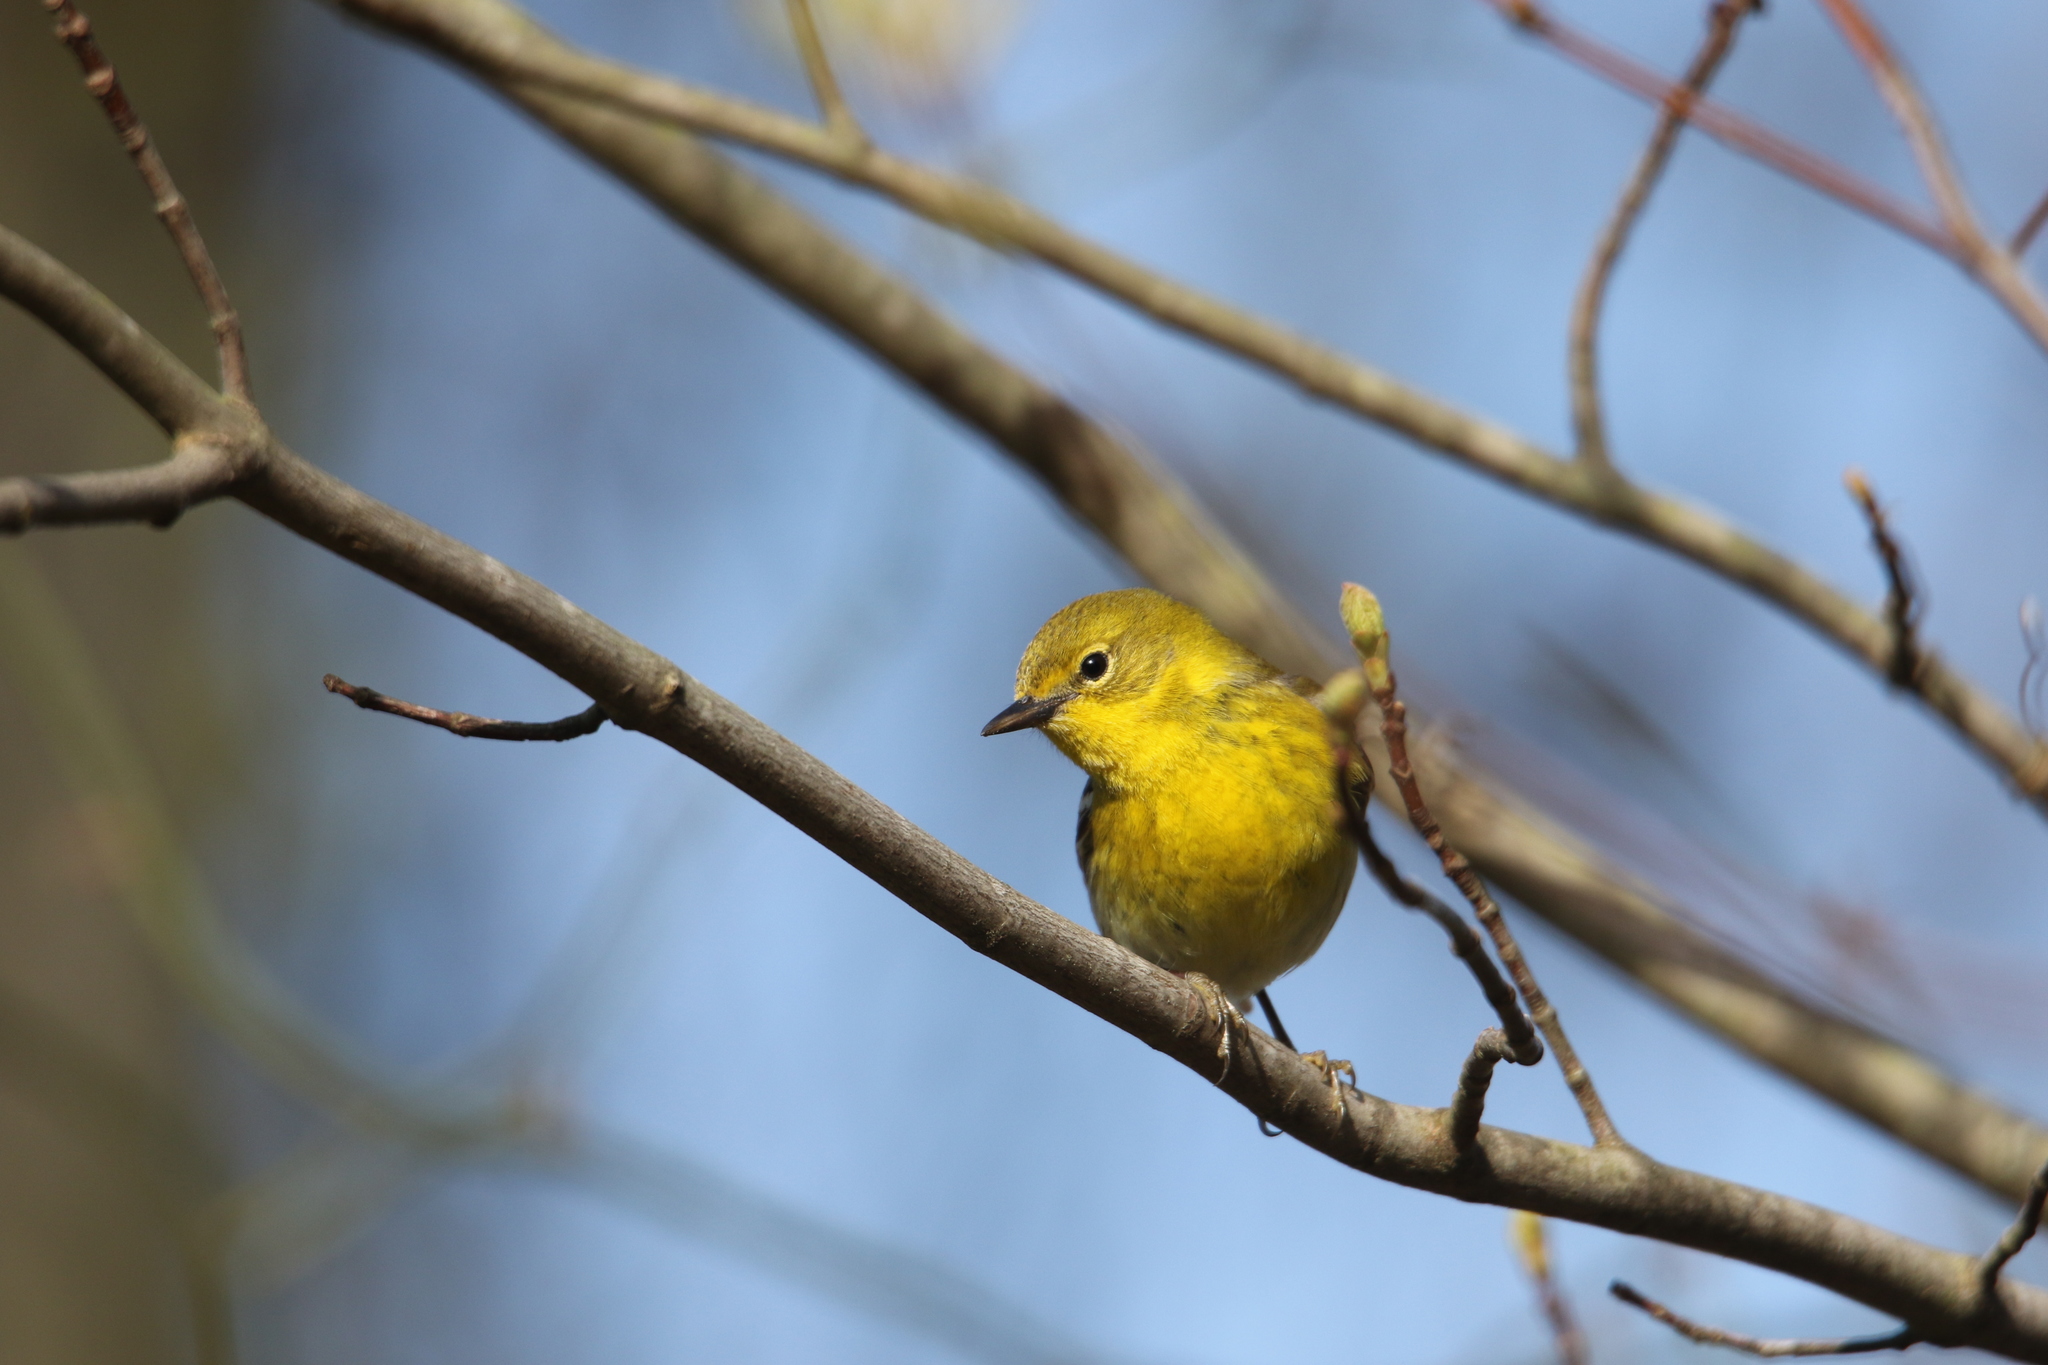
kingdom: Animalia
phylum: Chordata
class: Aves
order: Passeriformes
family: Parulidae
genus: Setophaga
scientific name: Setophaga pinus
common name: Pine warbler
